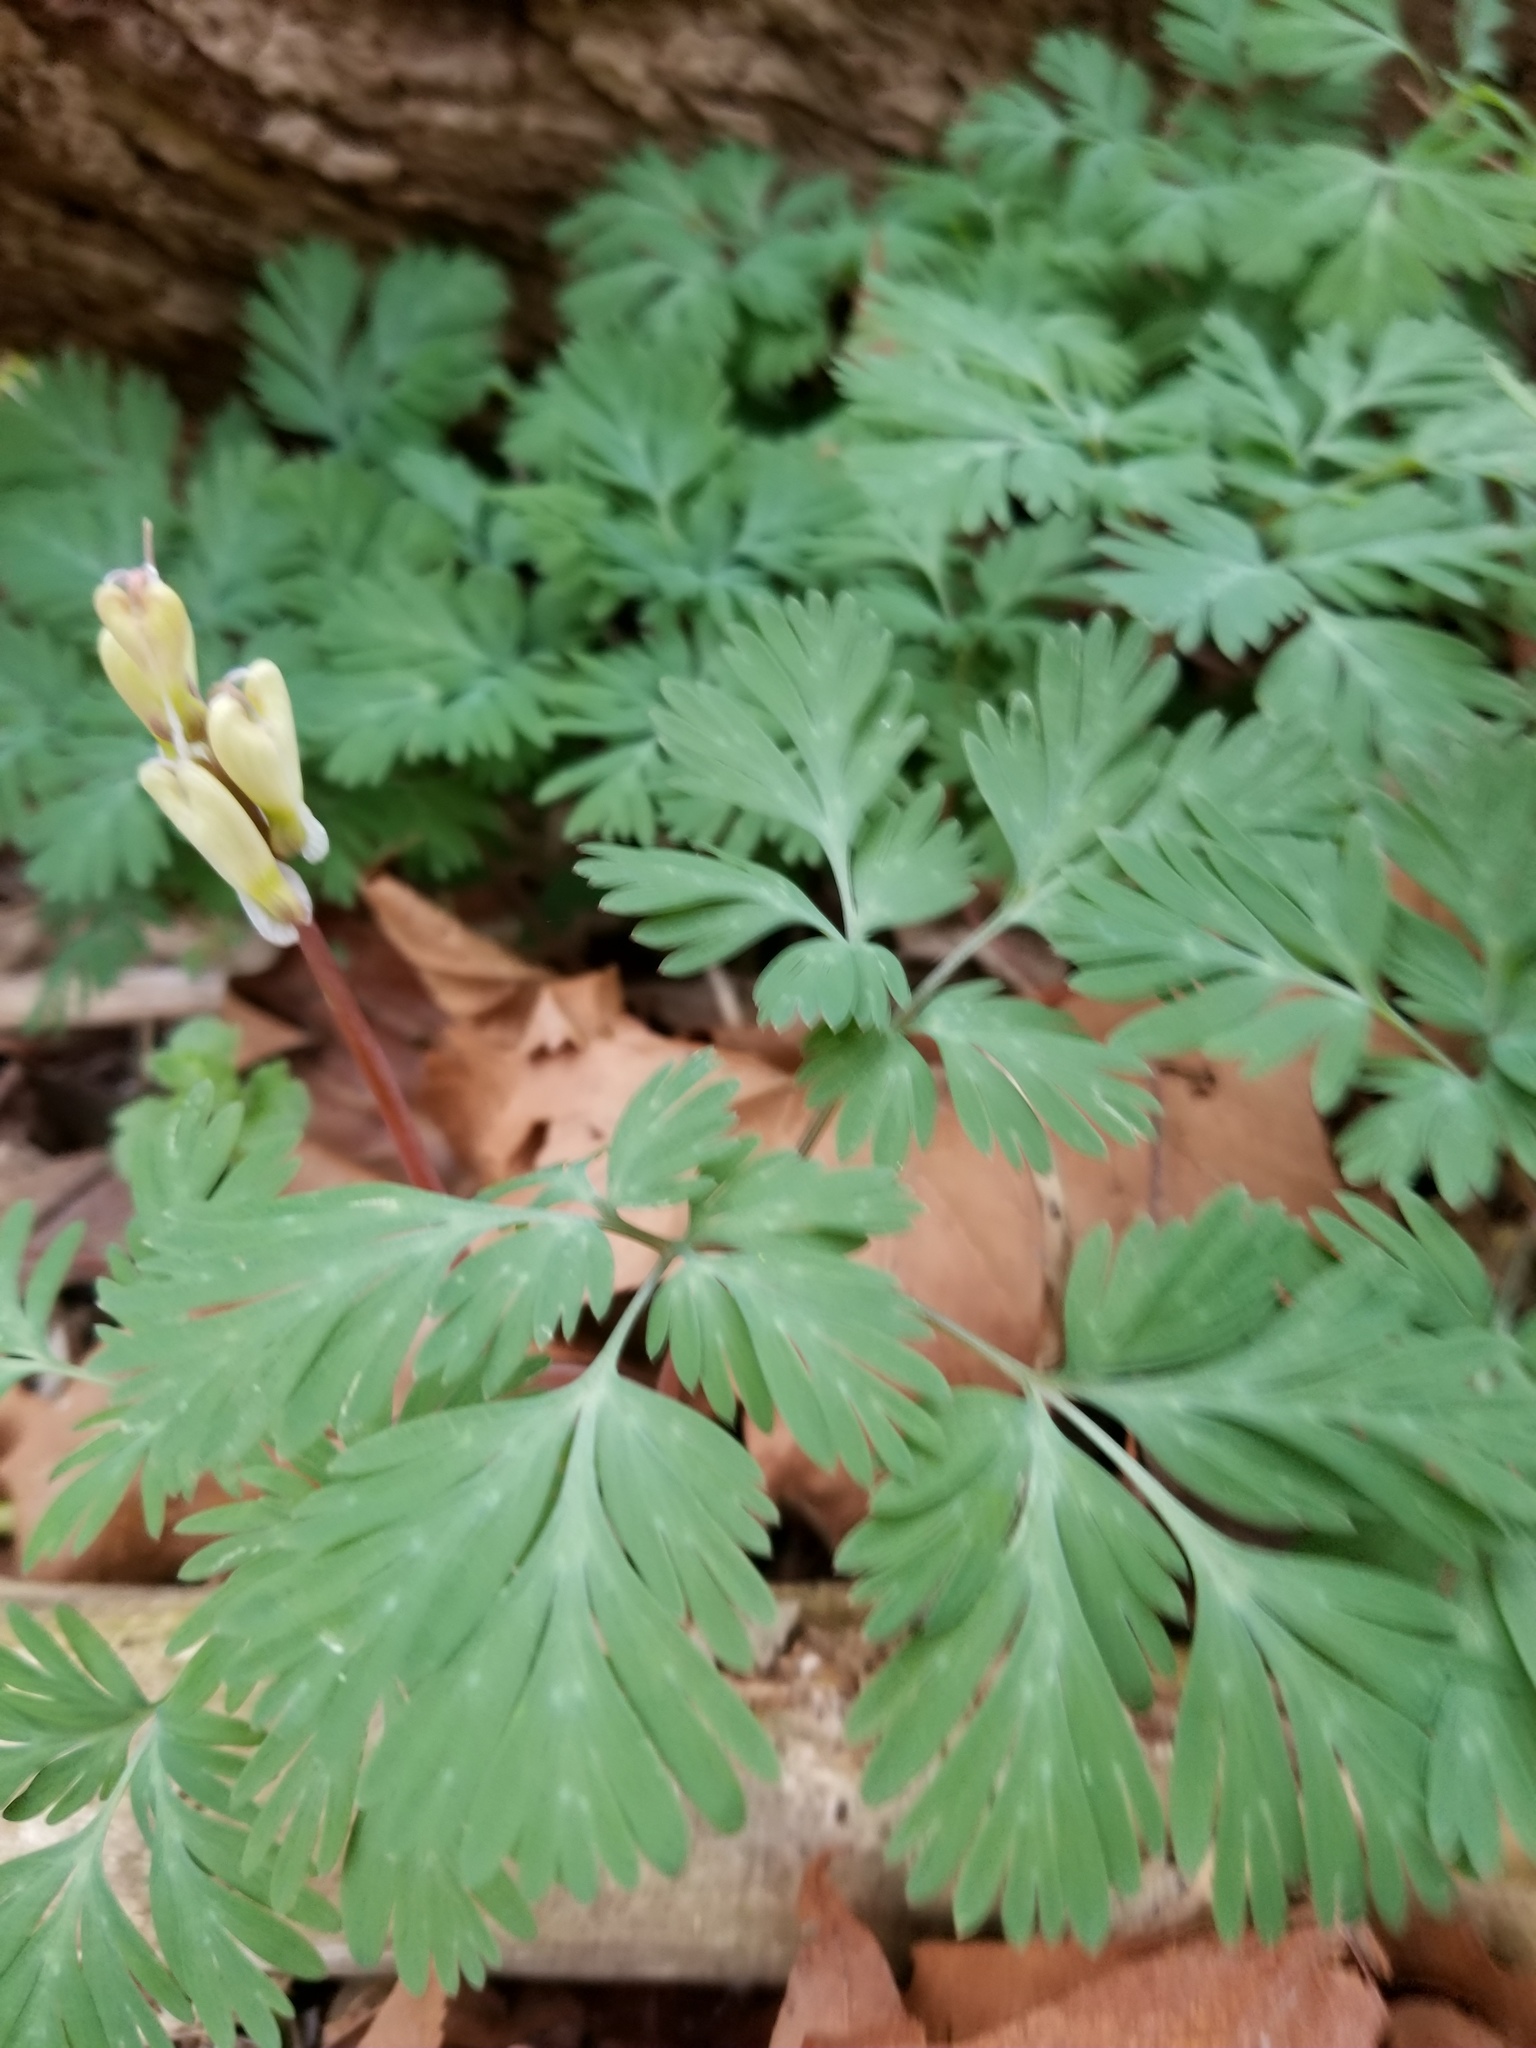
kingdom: Plantae
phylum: Tracheophyta
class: Magnoliopsida
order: Ranunculales
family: Papaveraceae
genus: Dicentra
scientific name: Dicentra canadensis
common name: Squirrel-corn
